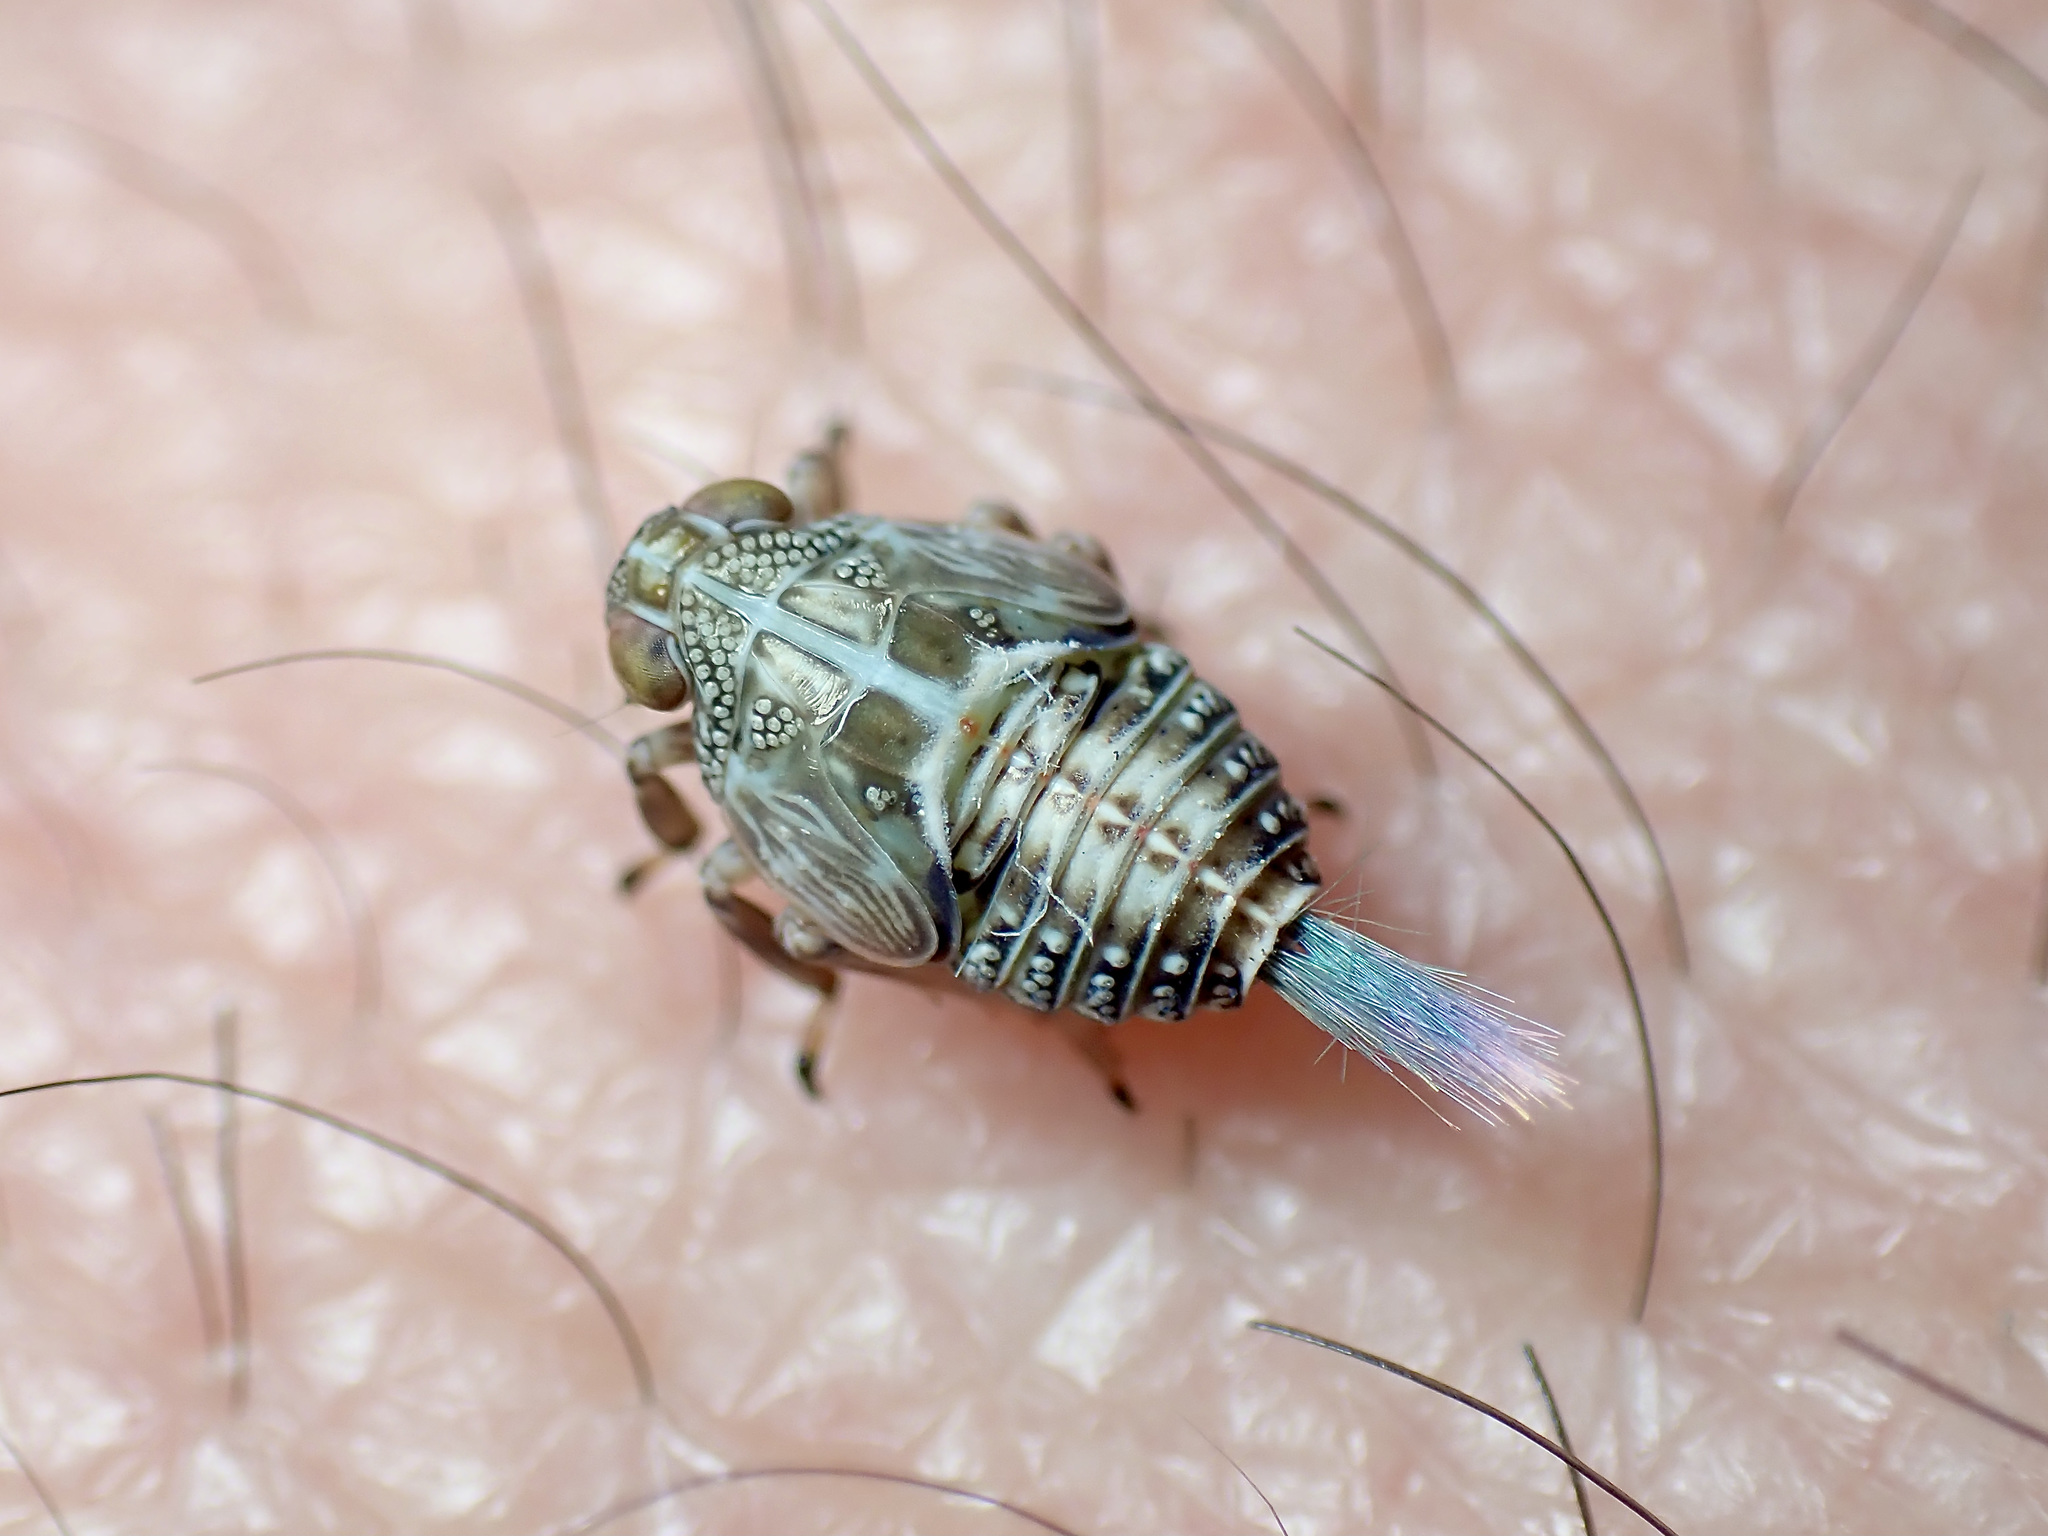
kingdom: Animalia
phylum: Arthropoda
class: Insecta
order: Hemiptera
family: Issidae
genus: Issus
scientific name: Issus coleoptratus
